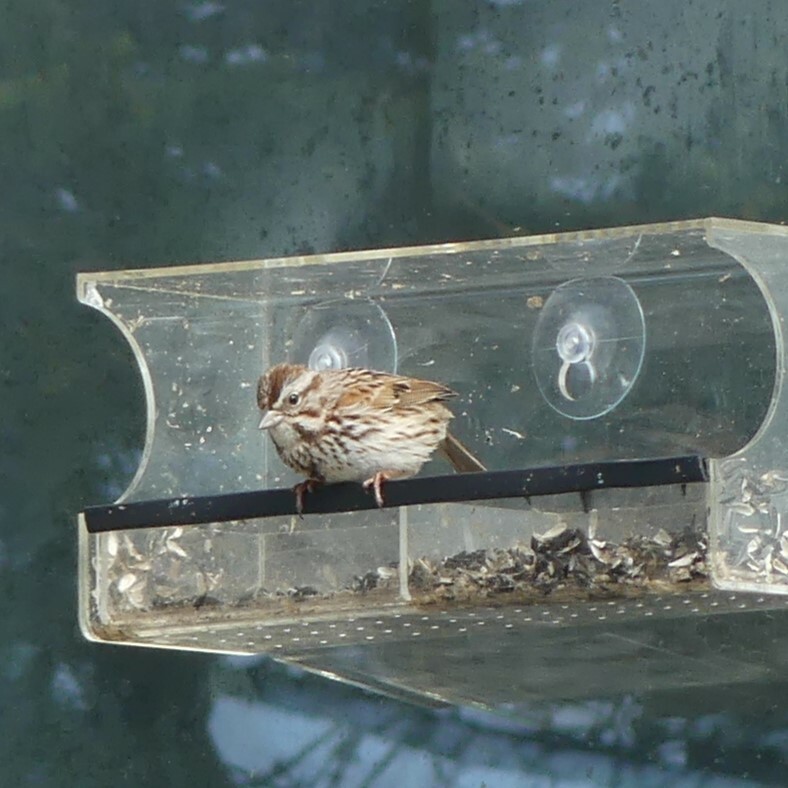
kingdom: Animalia
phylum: Chordata
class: Aves
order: Passeriformes
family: Passerellidae
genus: Melospiza
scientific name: Melospiza melodia
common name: Song sparrow
